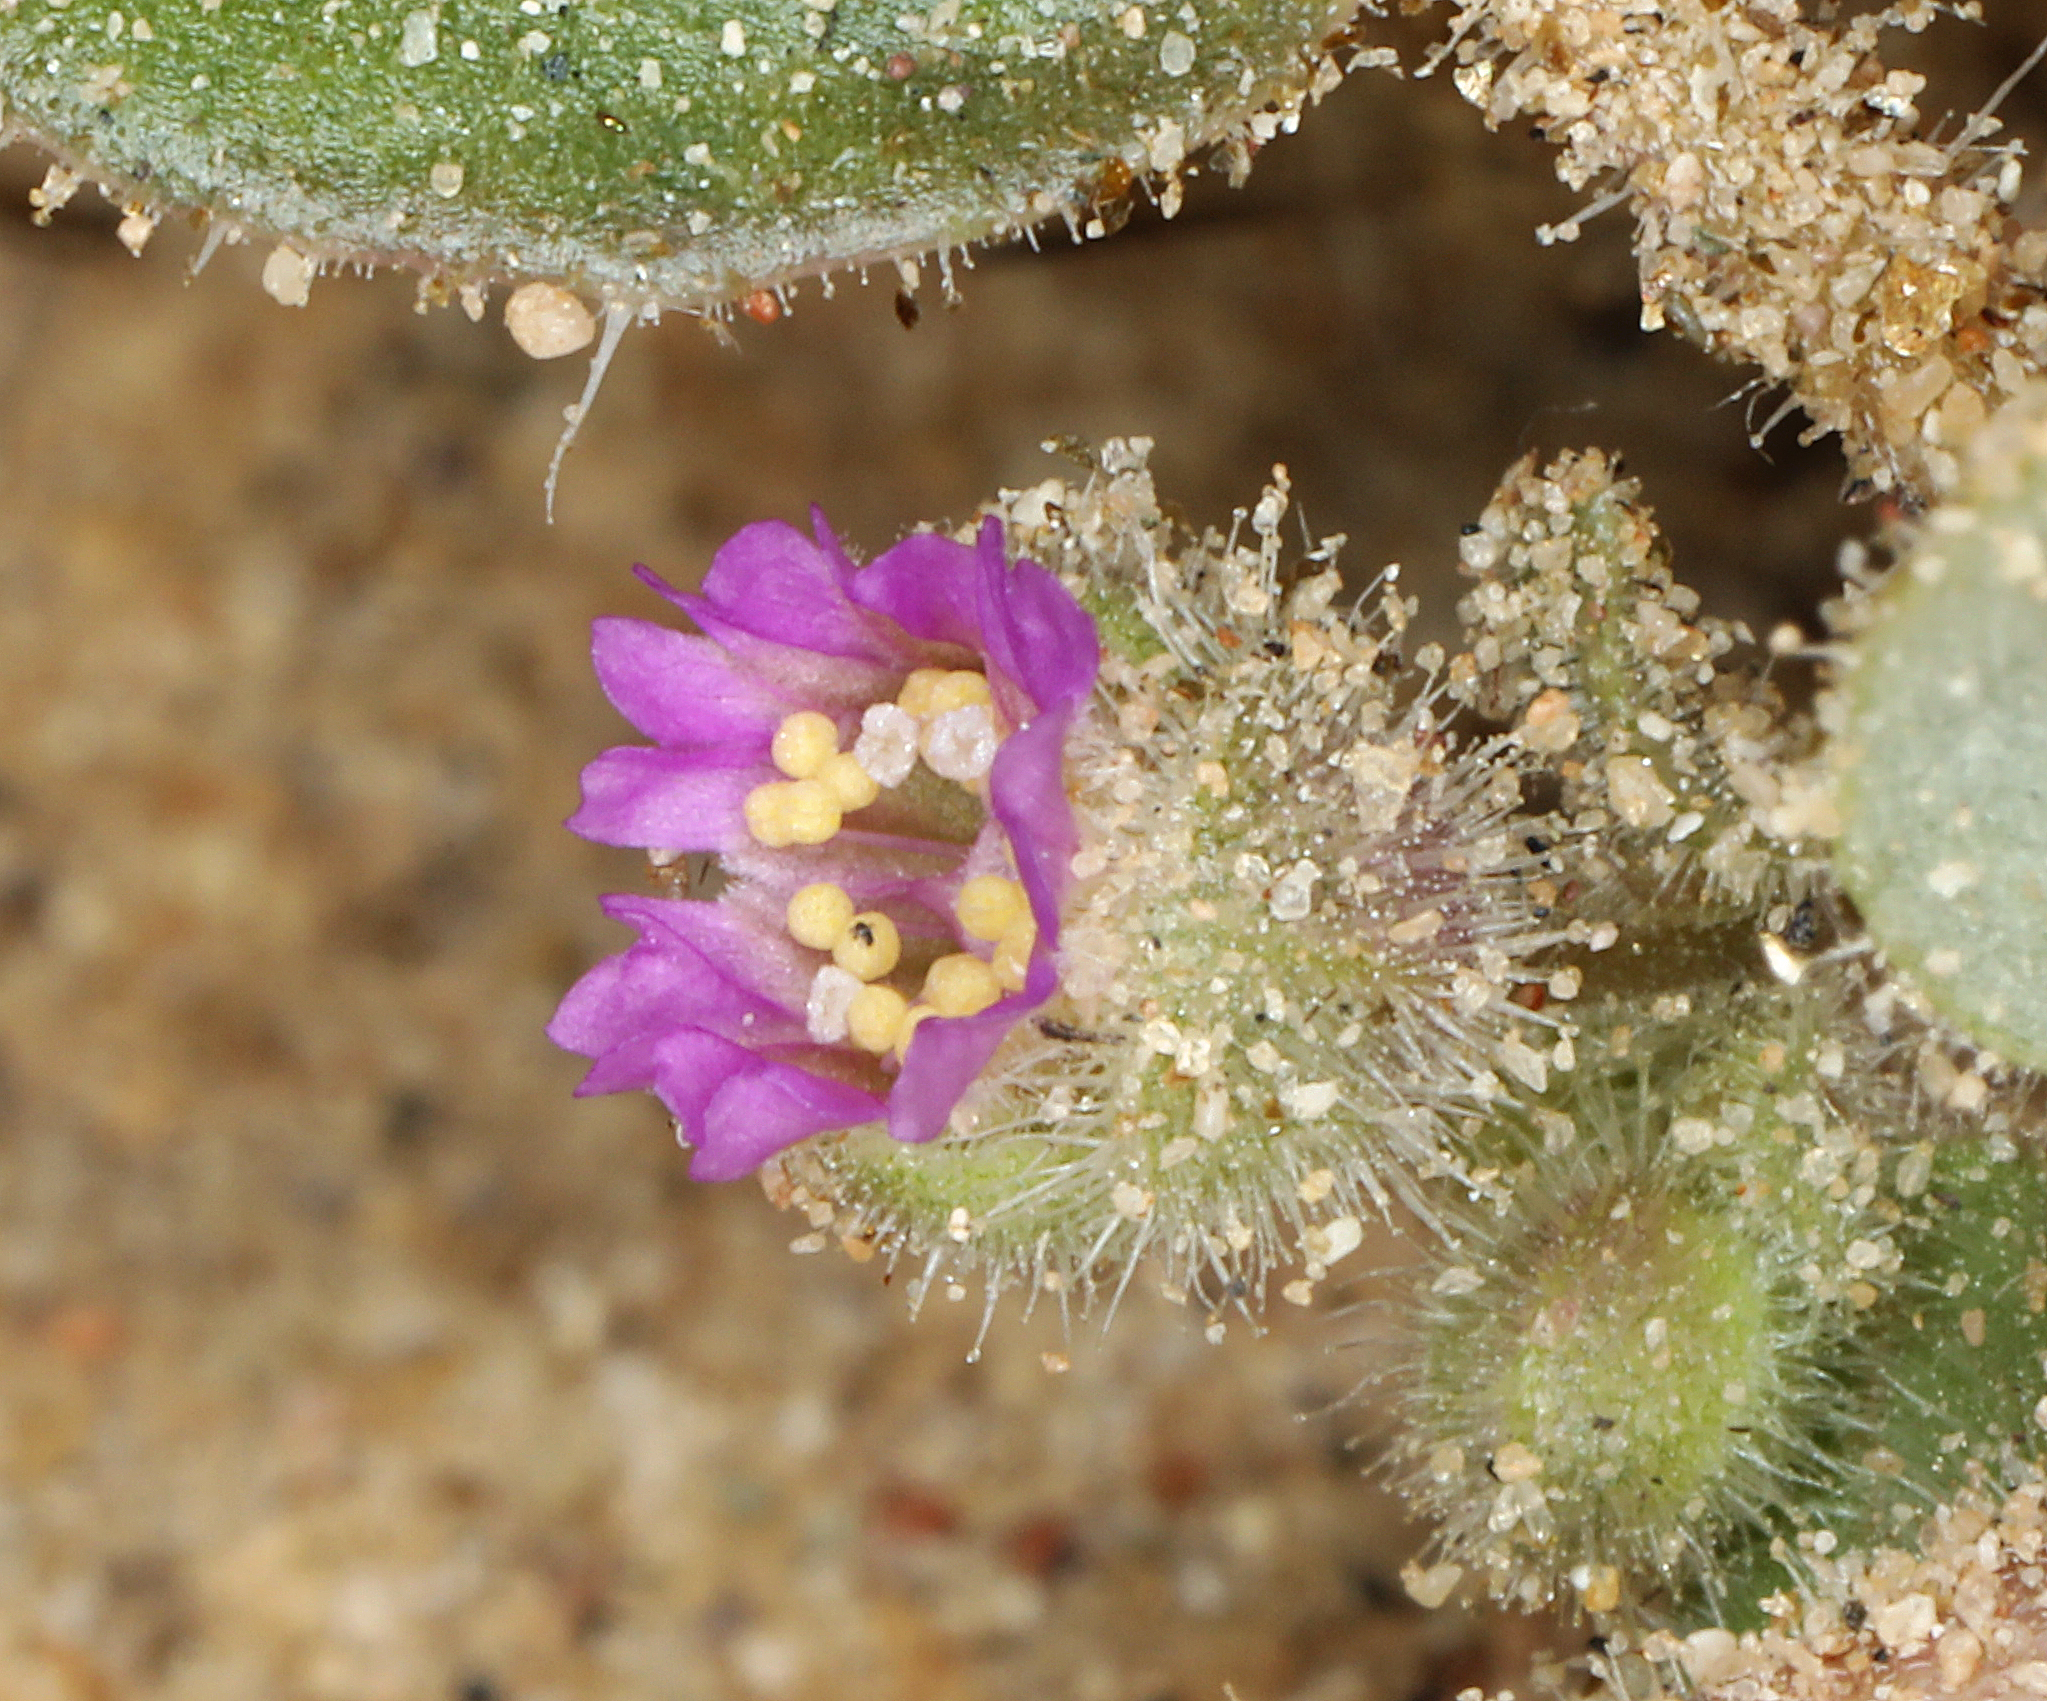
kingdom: Plantae
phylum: Tracheophyta
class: Magnoliopsida
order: Caryophyllales
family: Nyctaginaceae
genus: Allionia
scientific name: Allionia incarnata
